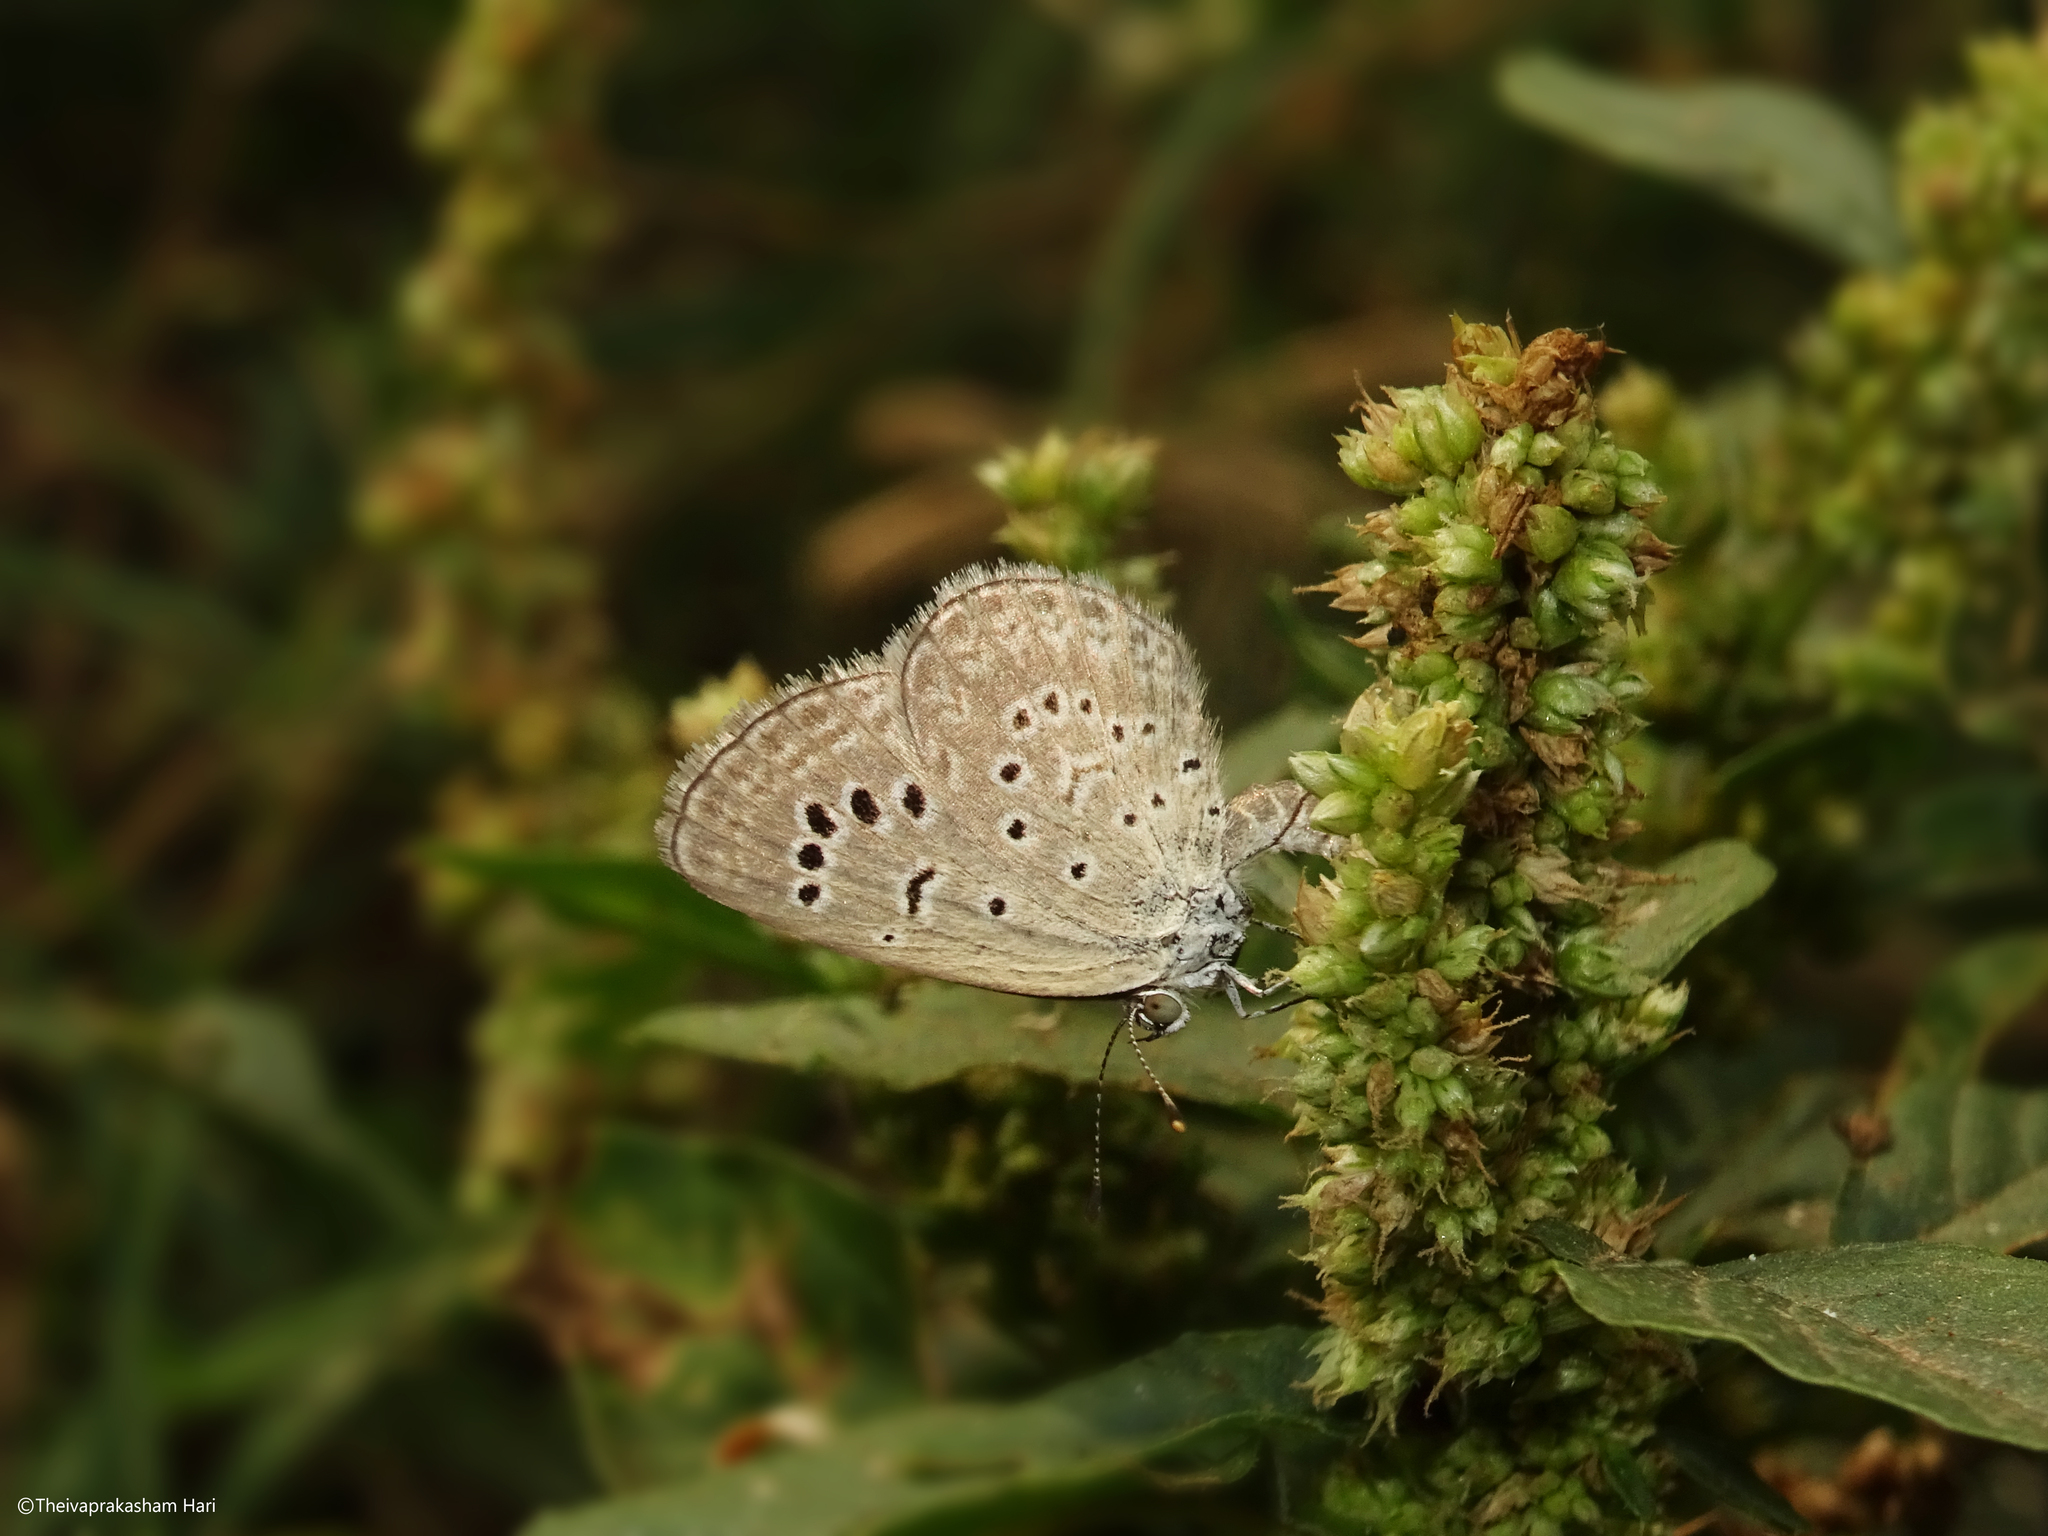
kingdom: Animalia
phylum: Arthropoda
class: Insecta
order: Lepidoptera
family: Lycaenidae
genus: Zizeeria
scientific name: Zizeeria karsandra
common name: Dark grass blue
